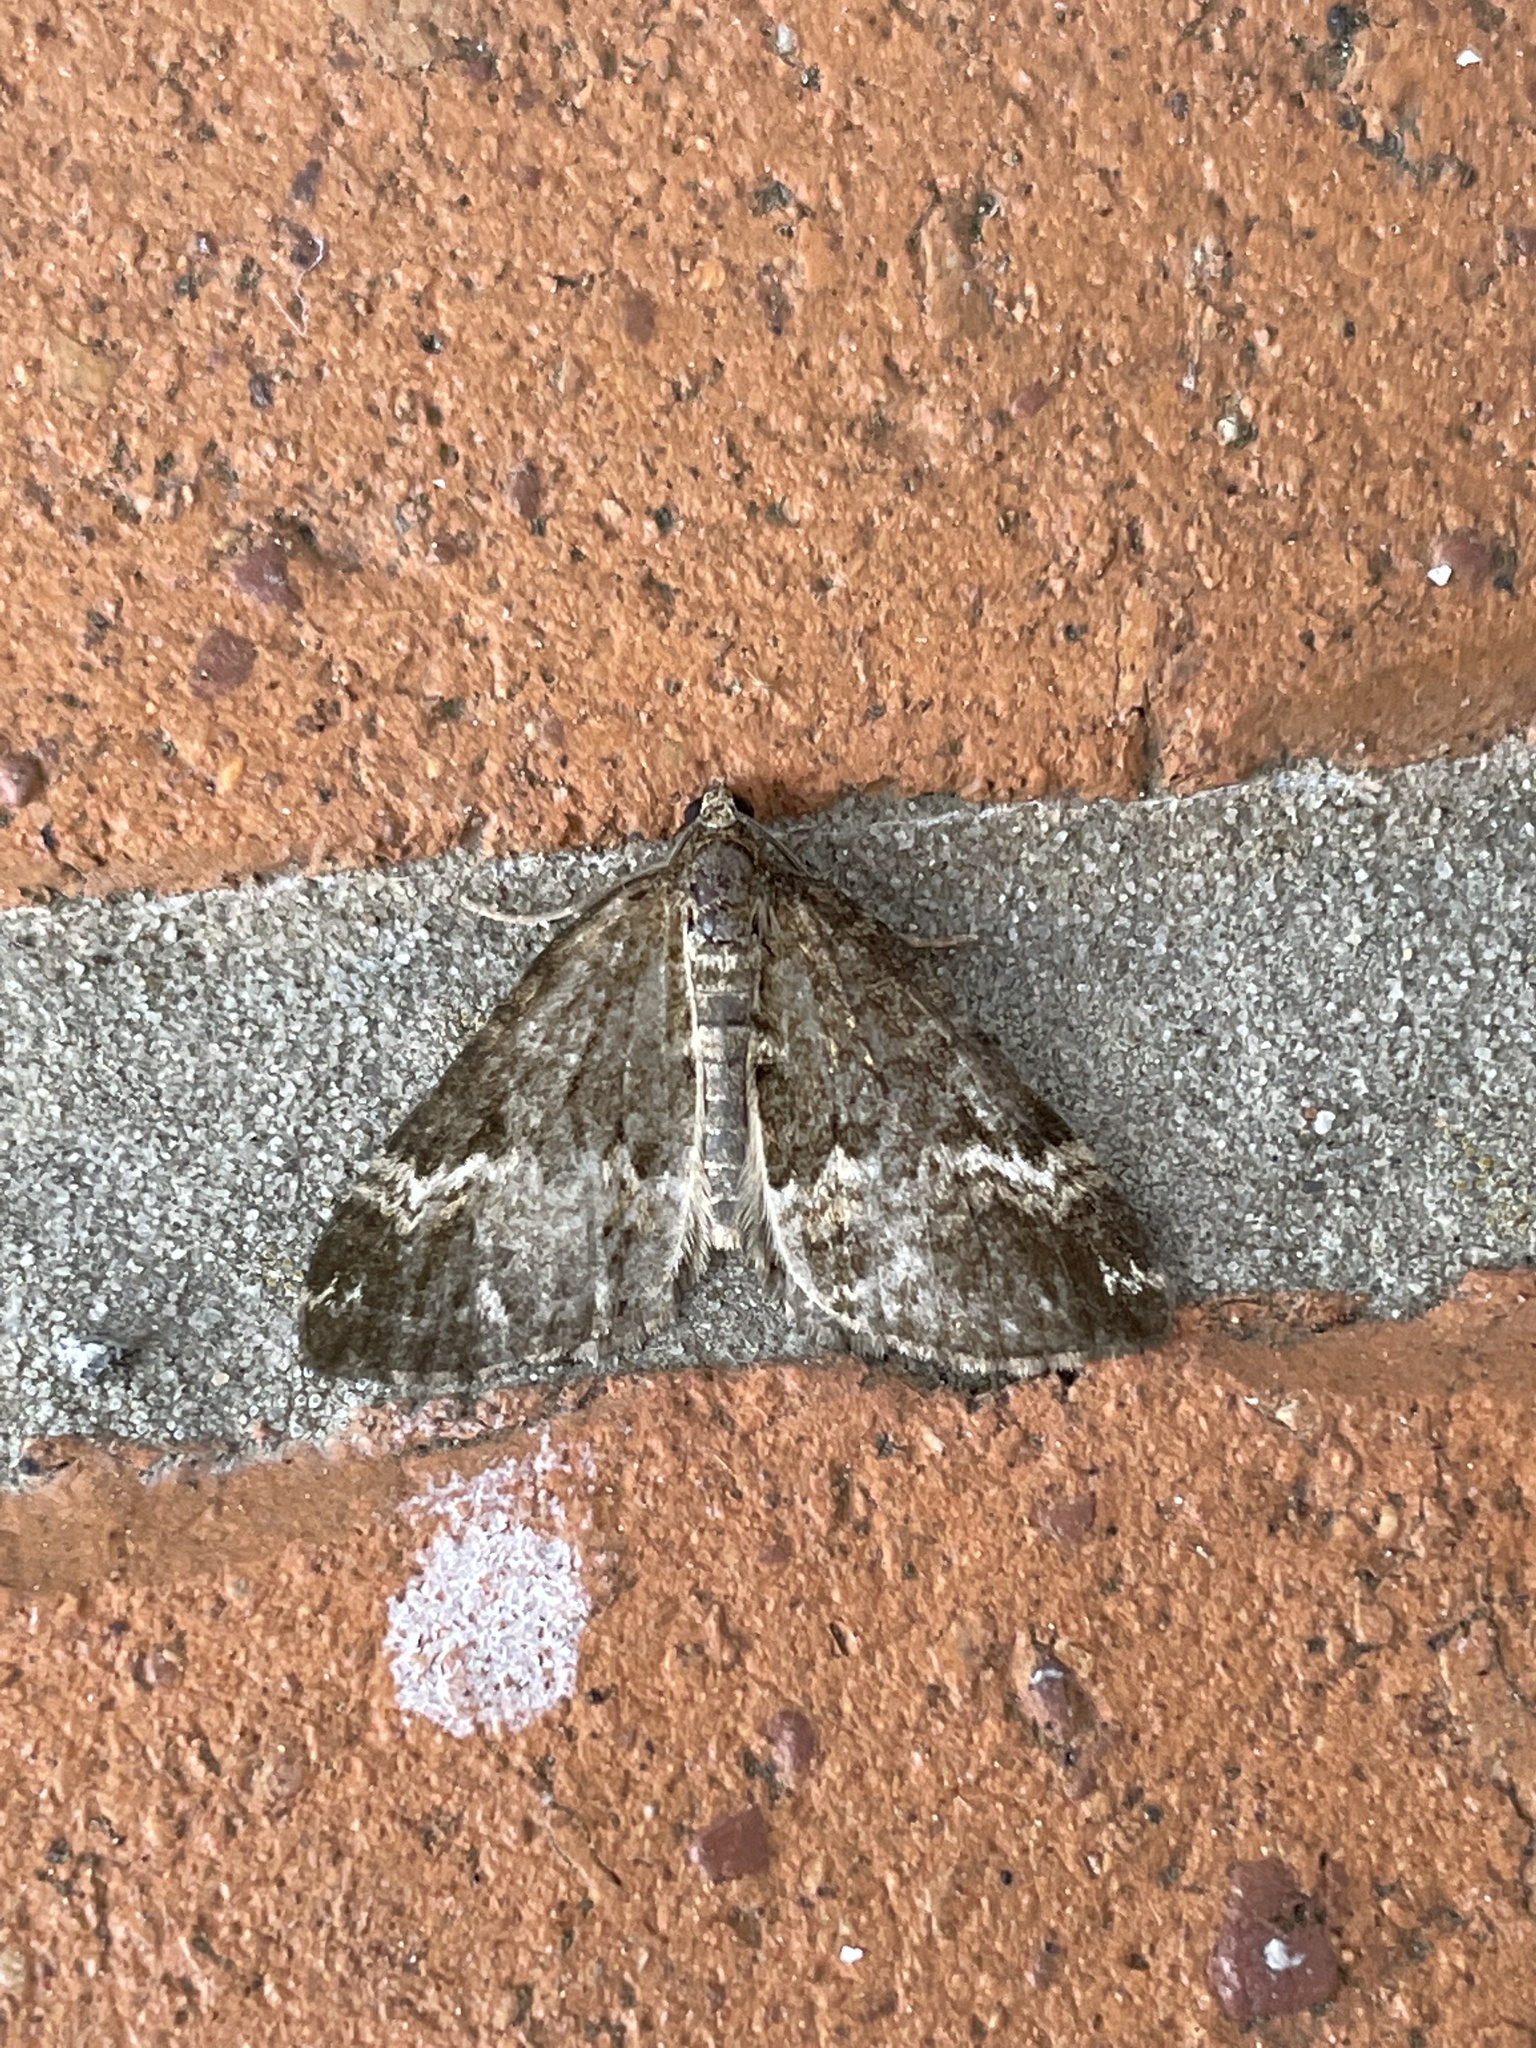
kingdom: Animalia
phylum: Arthropoda
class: Insecta
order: Lepidoptera
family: Geometridae
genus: Perizoma
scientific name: Perizoma alchemillata
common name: Small rivulet
